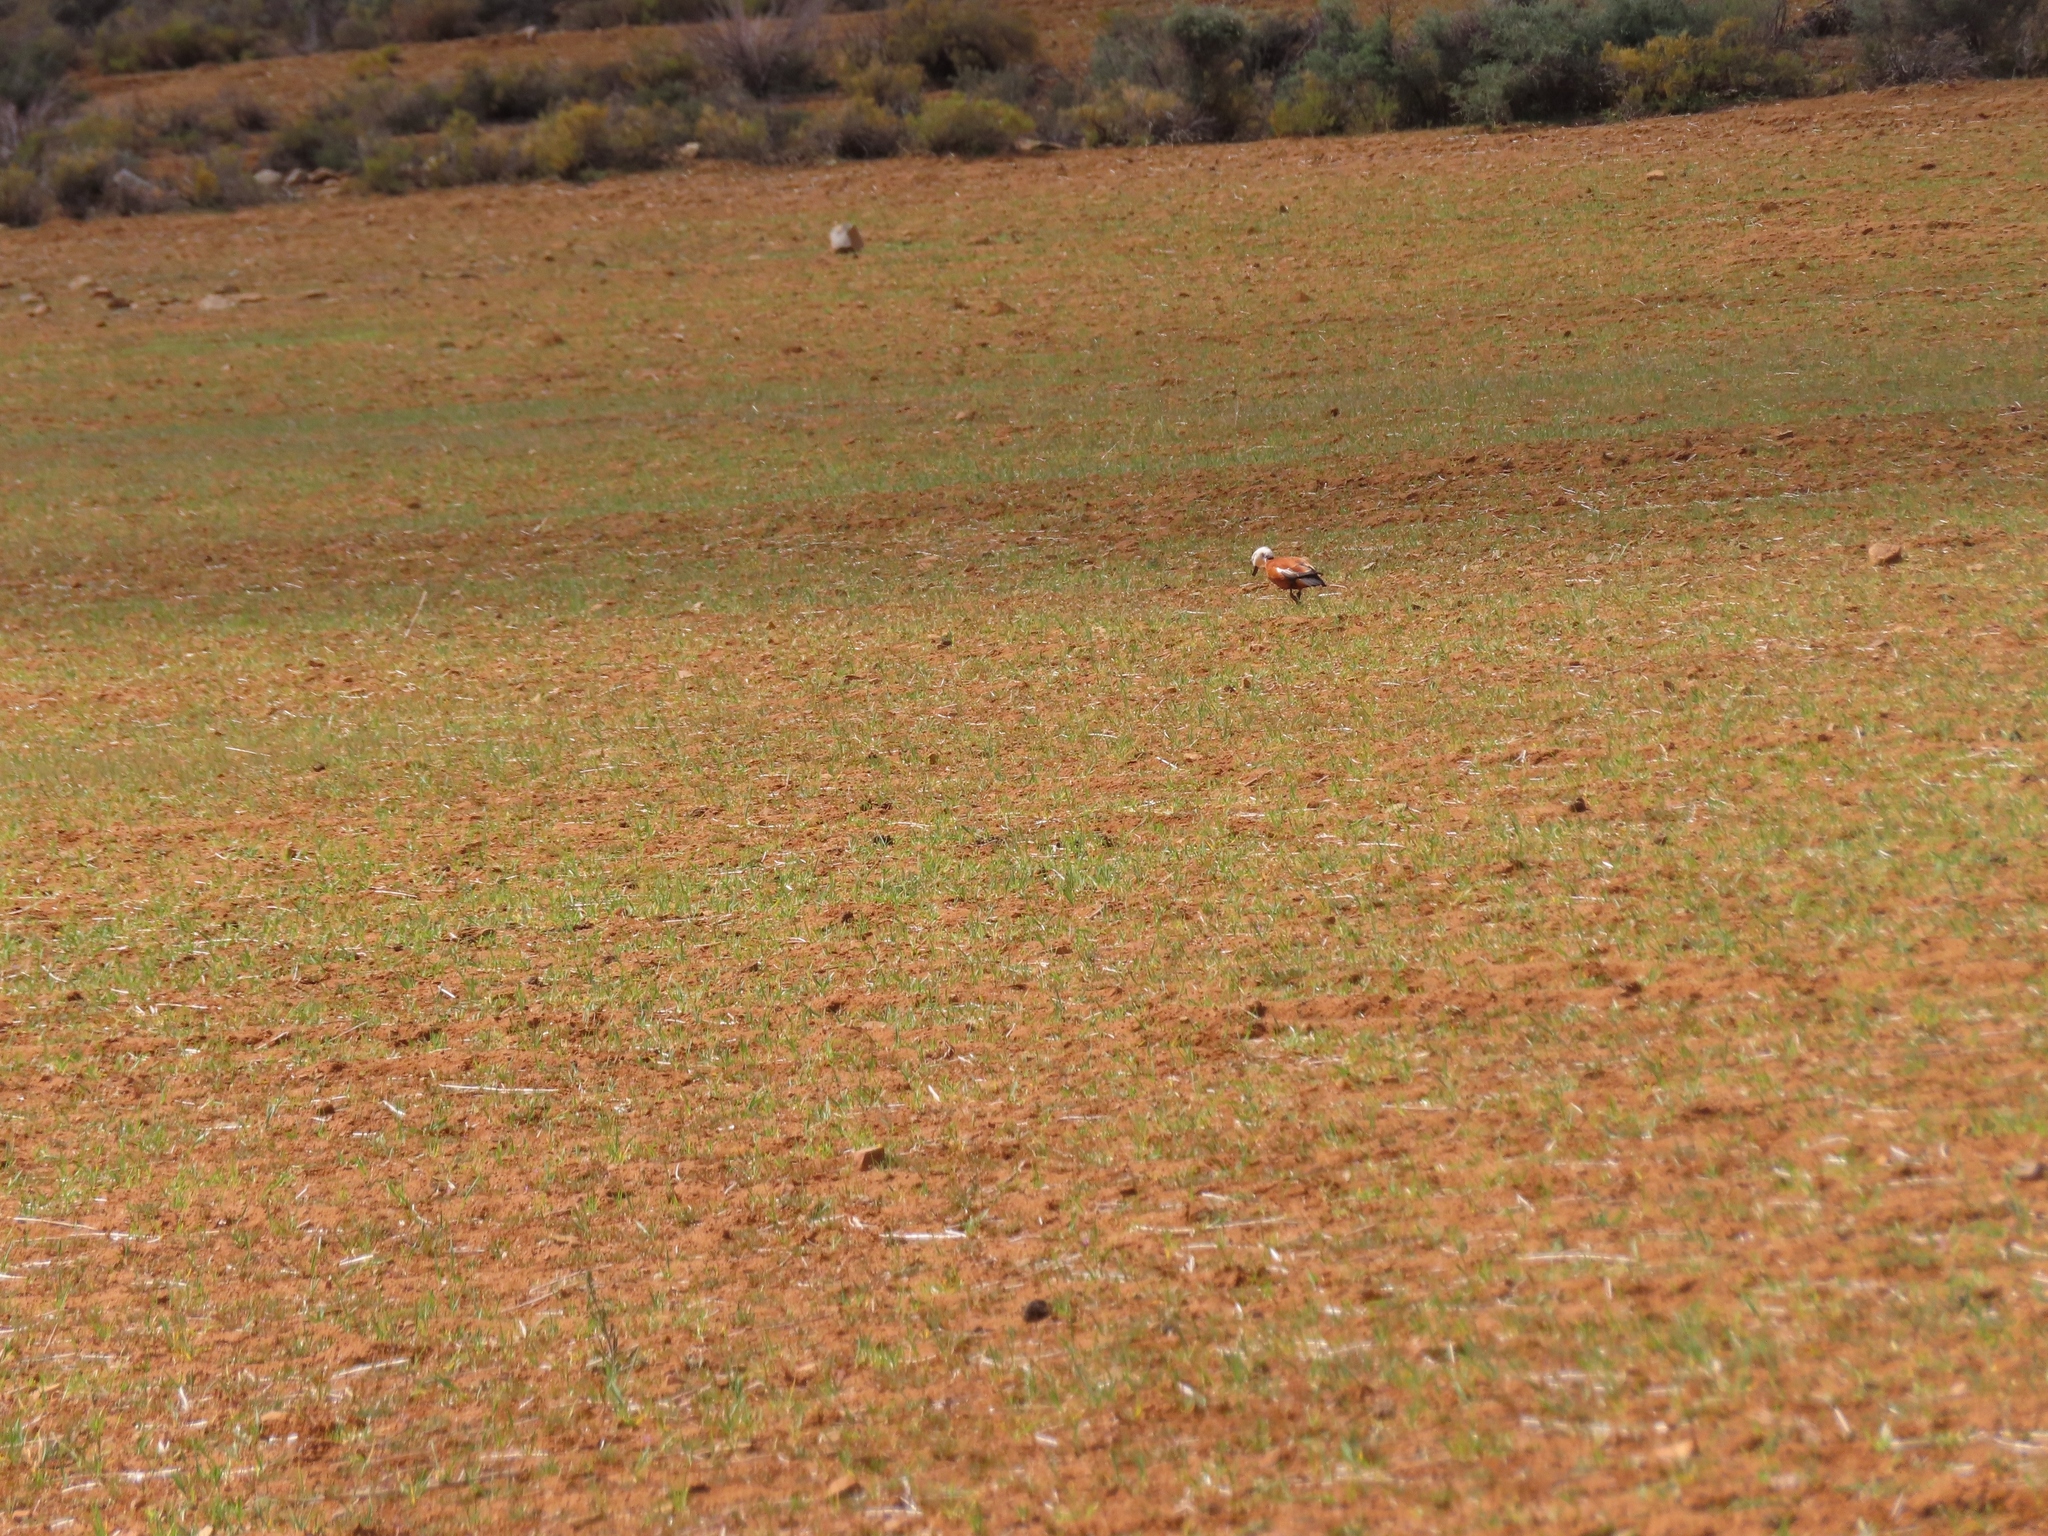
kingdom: Animalia
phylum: Chordata
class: Aves
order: Anseriformes
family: Anatidae
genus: Tadorna
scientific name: Tadorna cana
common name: South african shelduck
